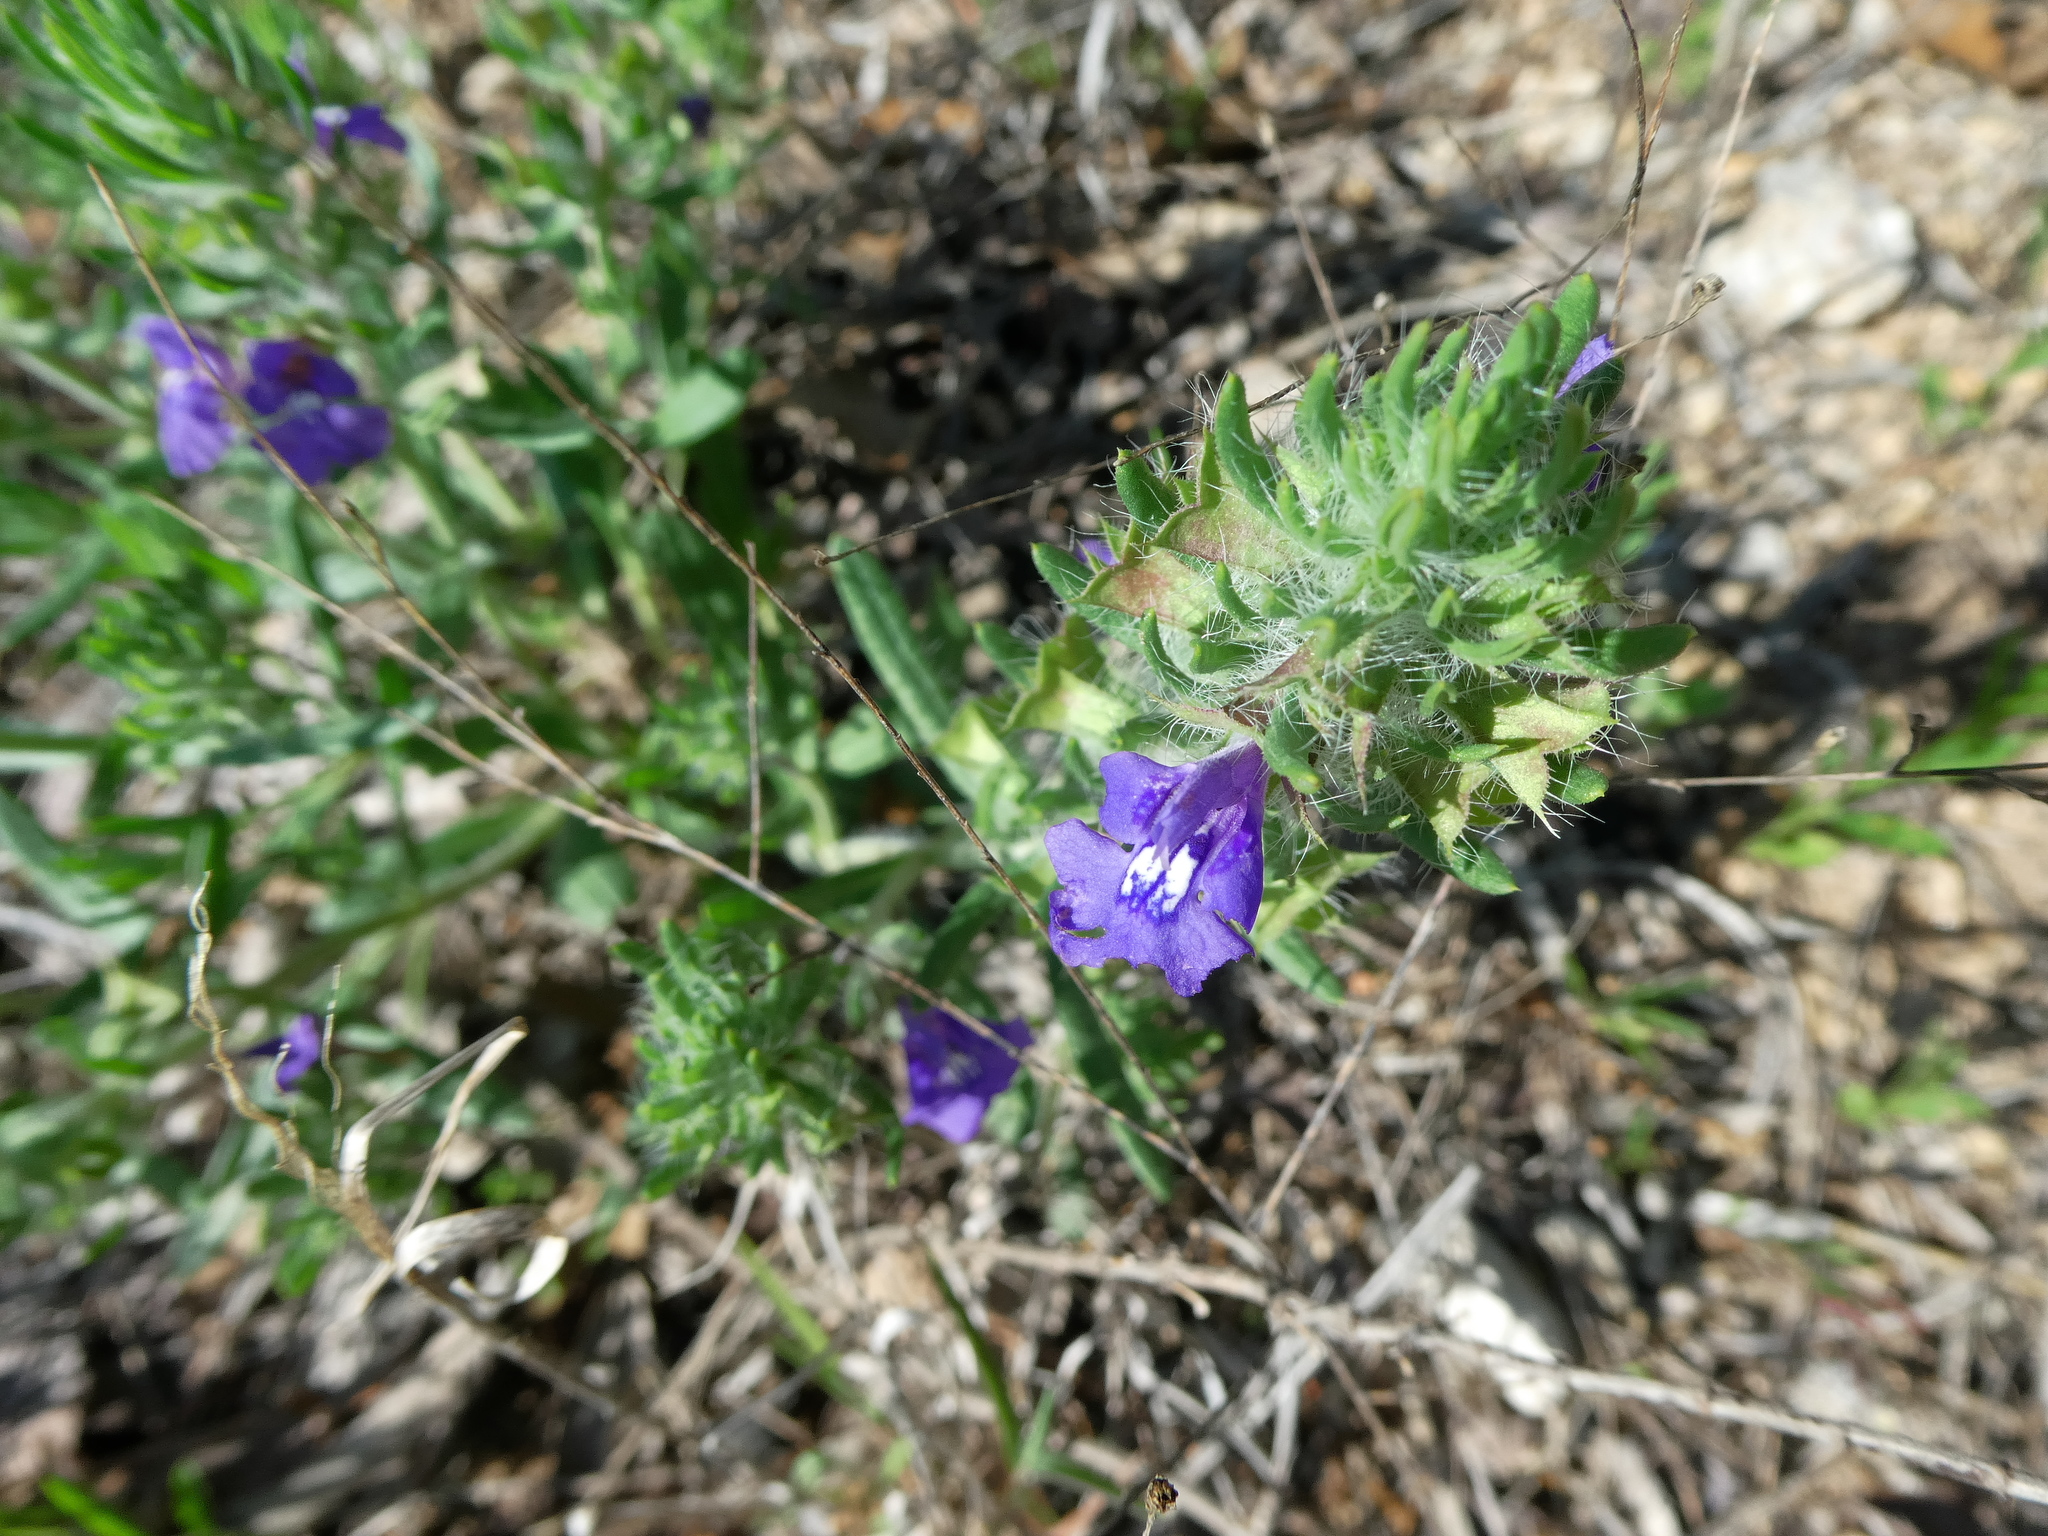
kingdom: Plantae
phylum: Tracheophyta
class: Magnoliopsida
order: Lamiales
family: Lamiaceae
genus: Salvia
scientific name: Salvia texana
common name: Texas sage
